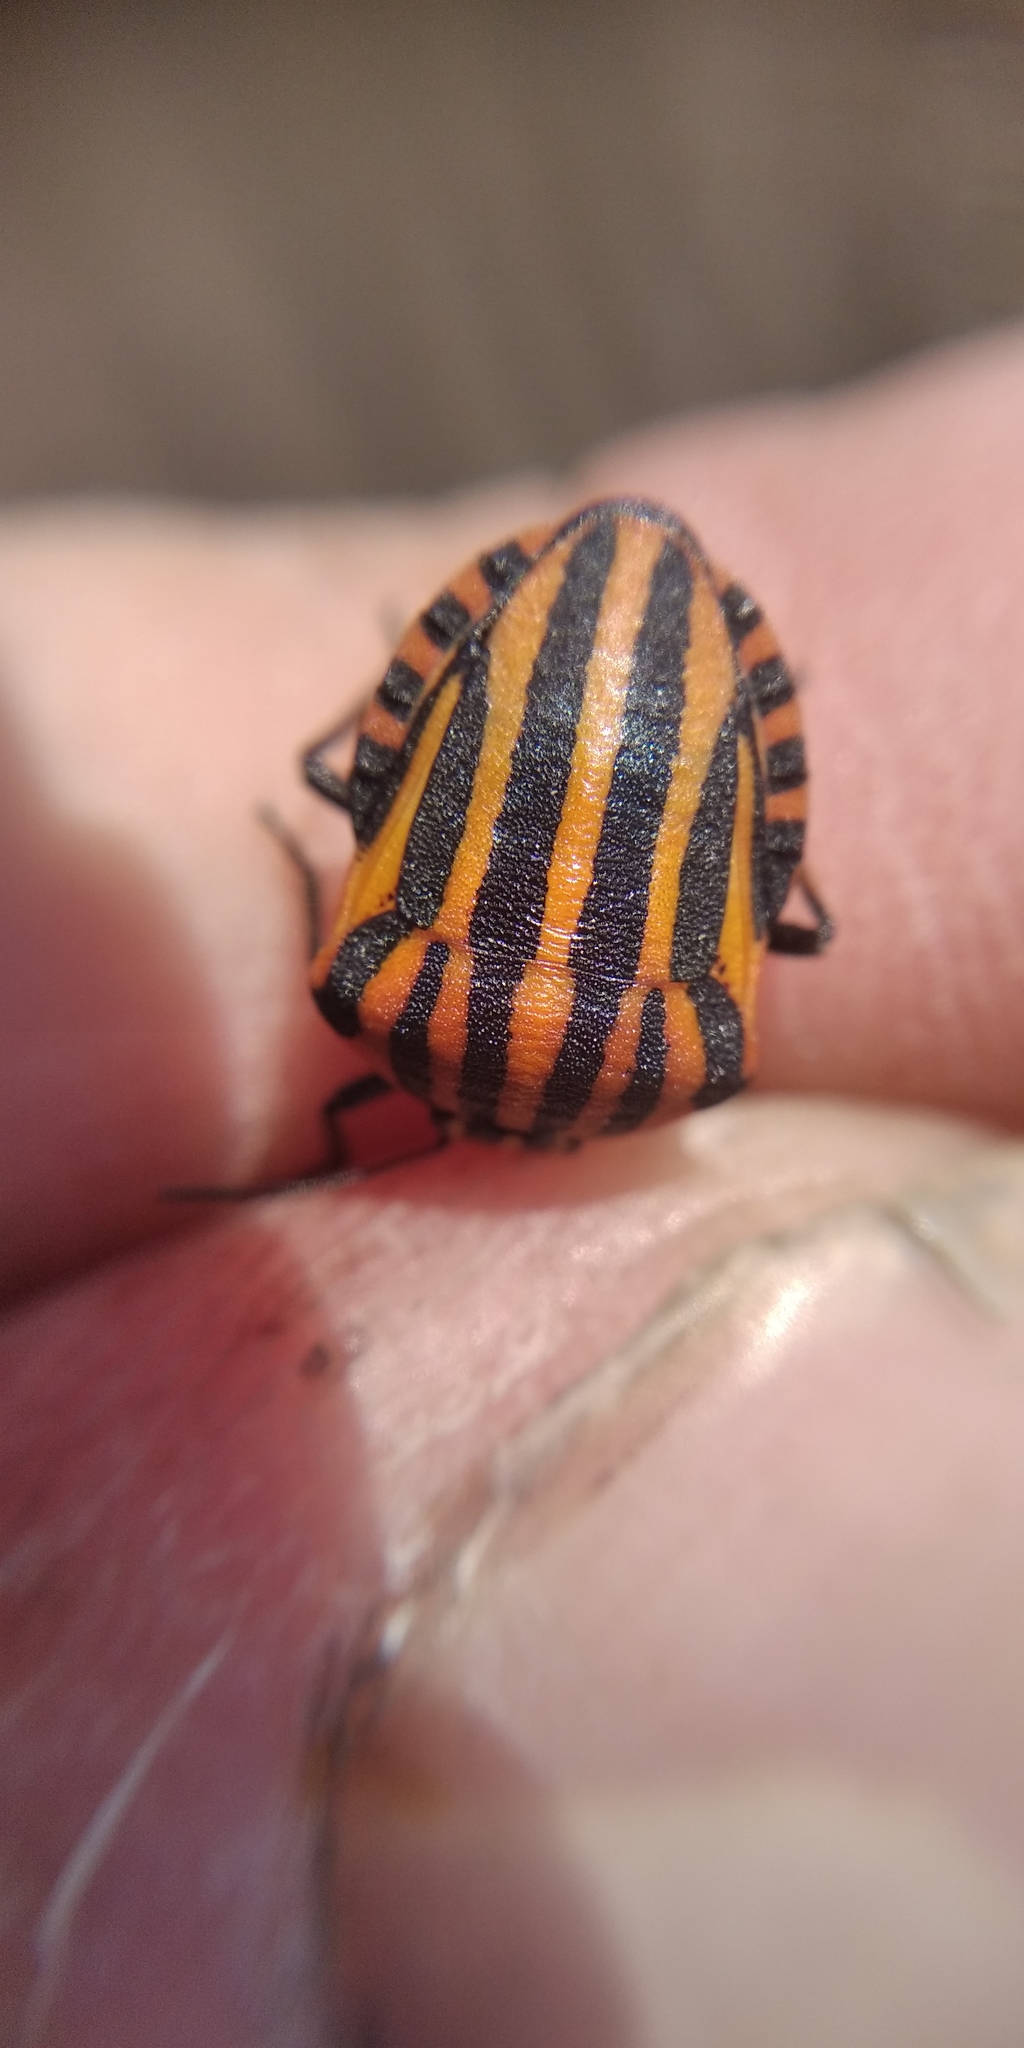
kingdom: Animalia
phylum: Arthropoda
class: Insecta
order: Hemiptera
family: Pentatomidae
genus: Graphosoma
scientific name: Graphosoma italicum
